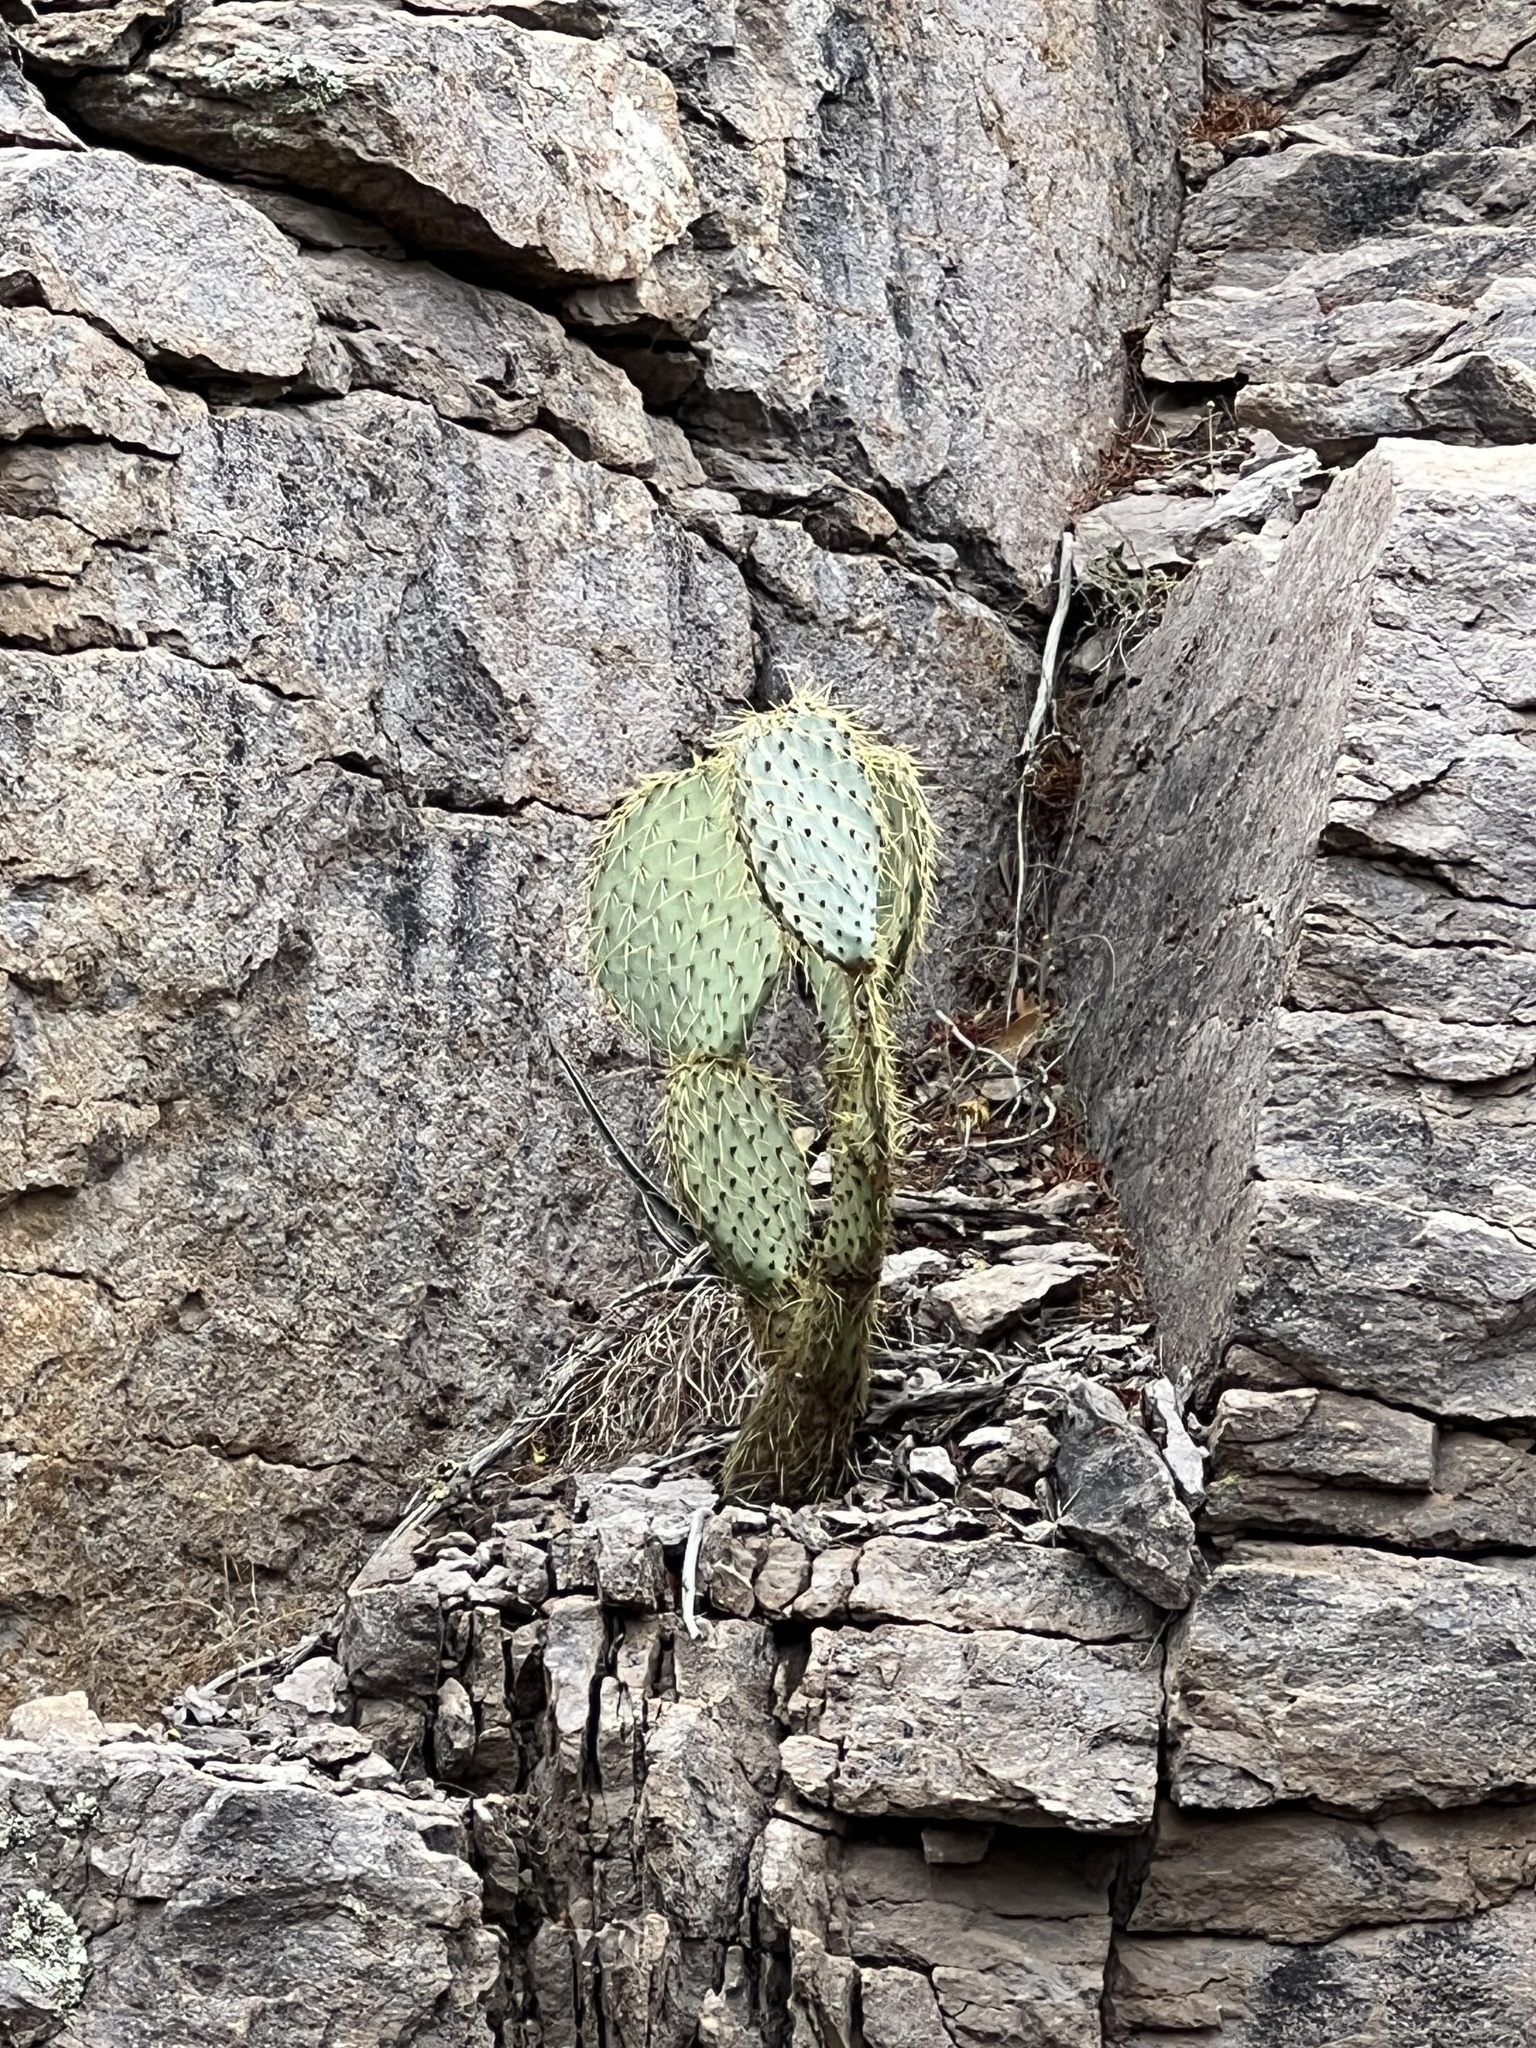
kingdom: Plantae
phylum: Tracheophyta
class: Magnoliopsida
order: Caryophyllales
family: Cactaceae
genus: Opuntia
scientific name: Opuntia chlorotica
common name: Dollar-joint prickly-pear
